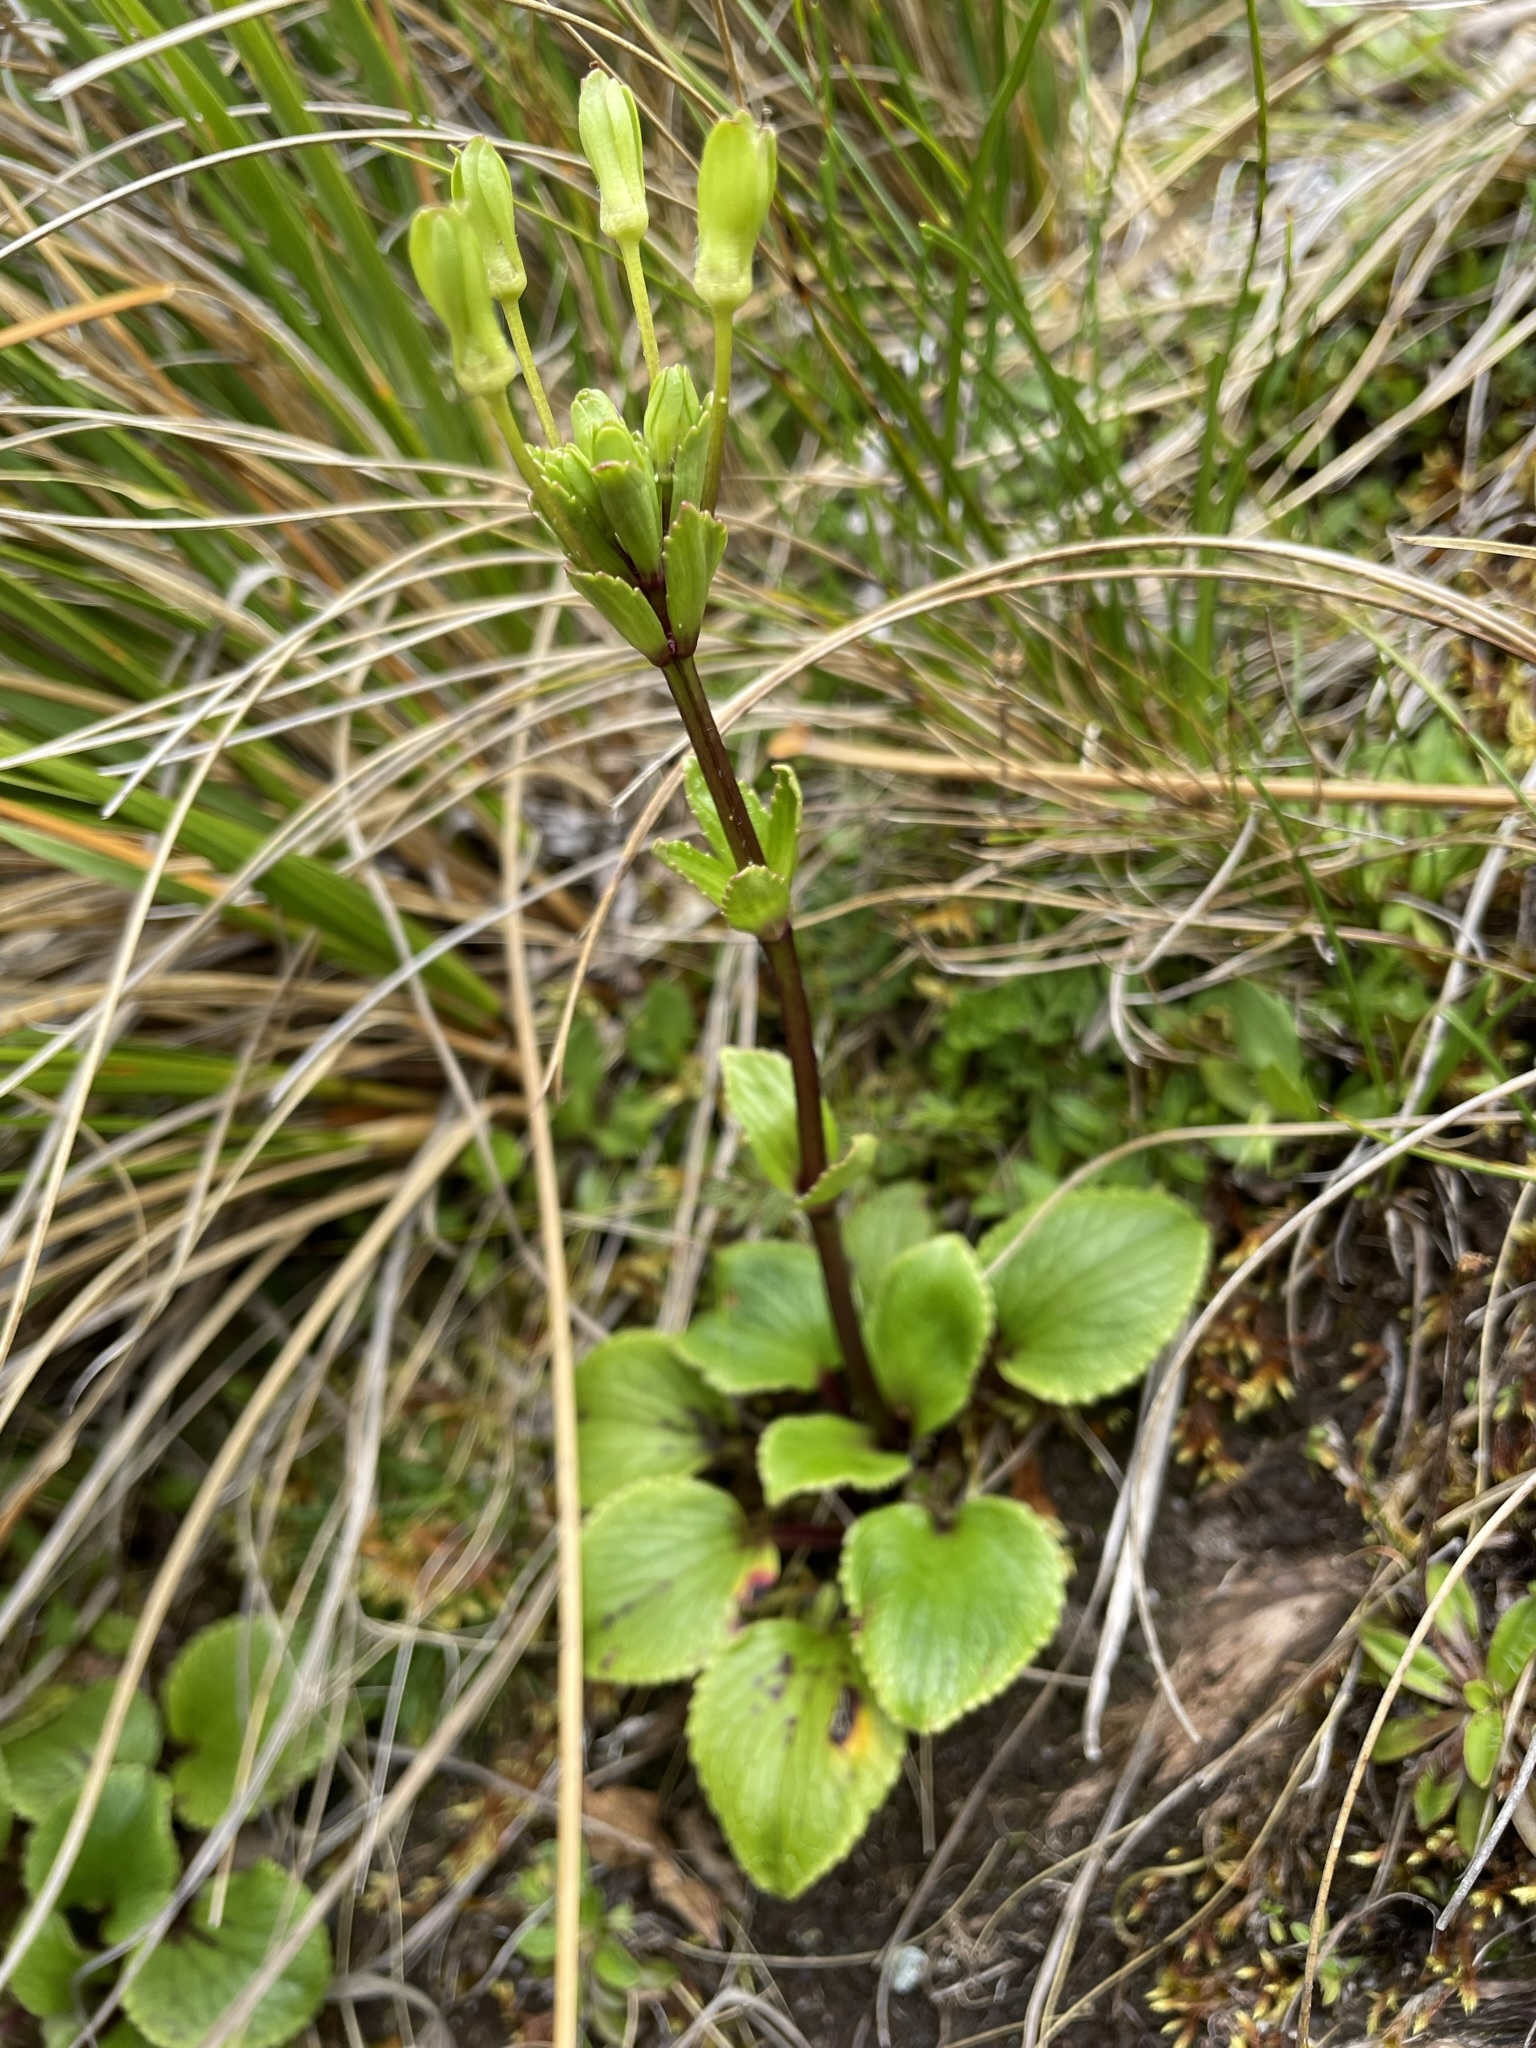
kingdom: Plantae
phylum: Tracheophyta
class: Magnoliopsida
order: Lamiales
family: Plantaginaceae
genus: Ourisia
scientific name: Ourisia macrocarpa
